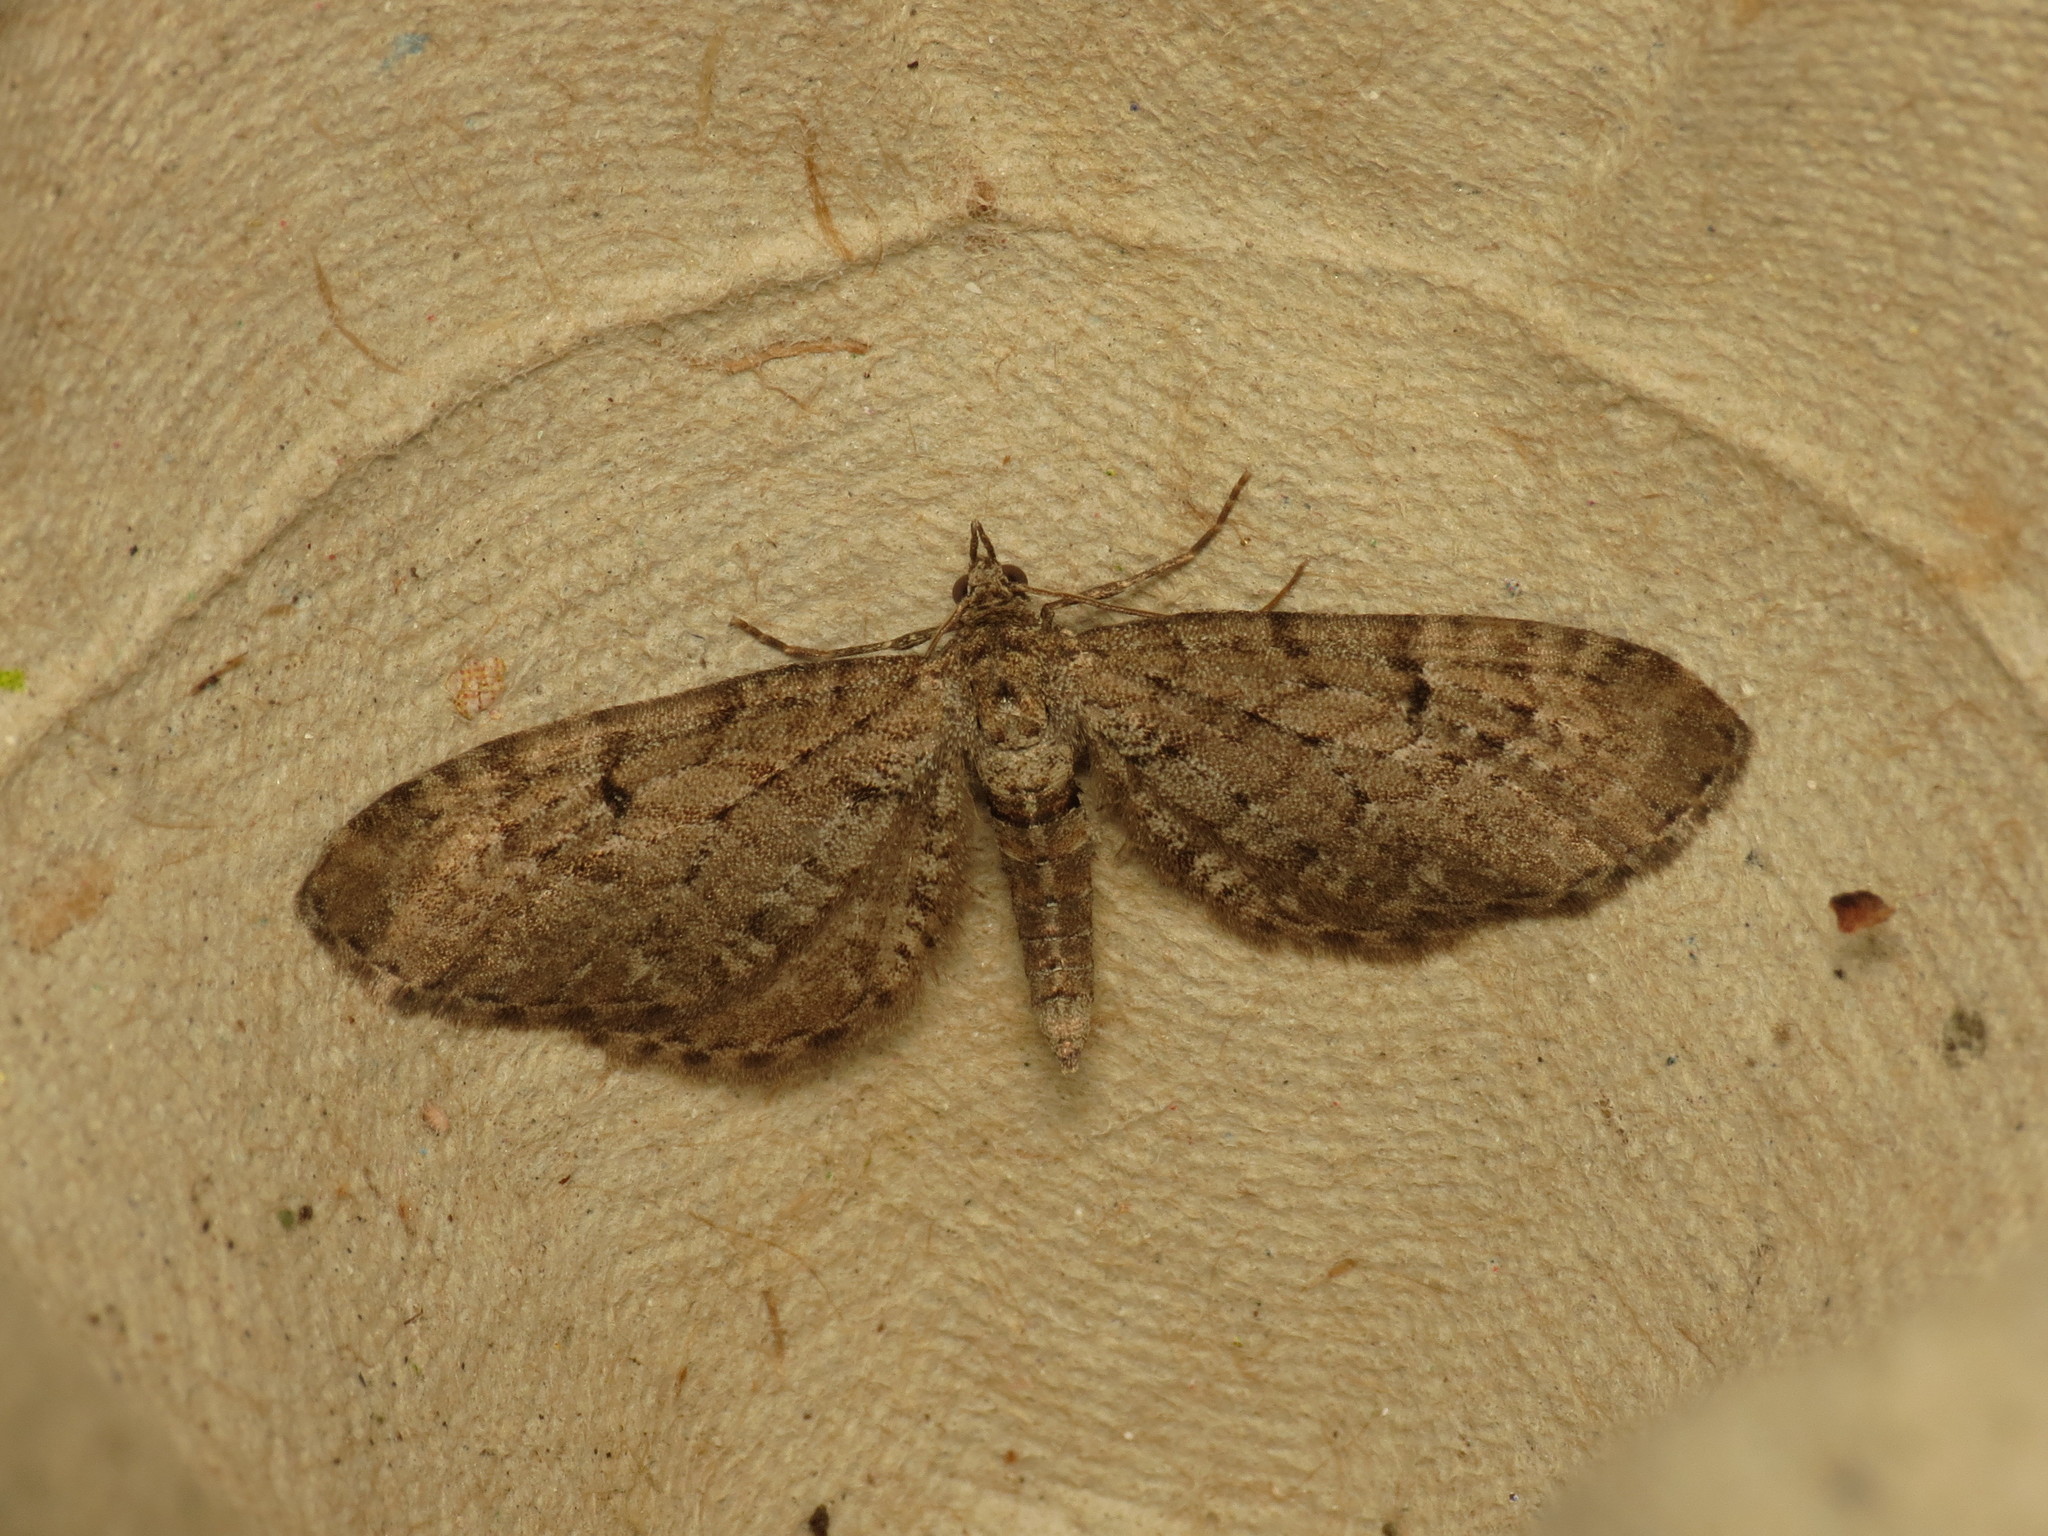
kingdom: Animalia
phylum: Arthropoda
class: Insecta
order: Lepidoptera
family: Geometridae
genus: Eupithecia
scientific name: Eupithecia intricata
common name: Freyers pug
